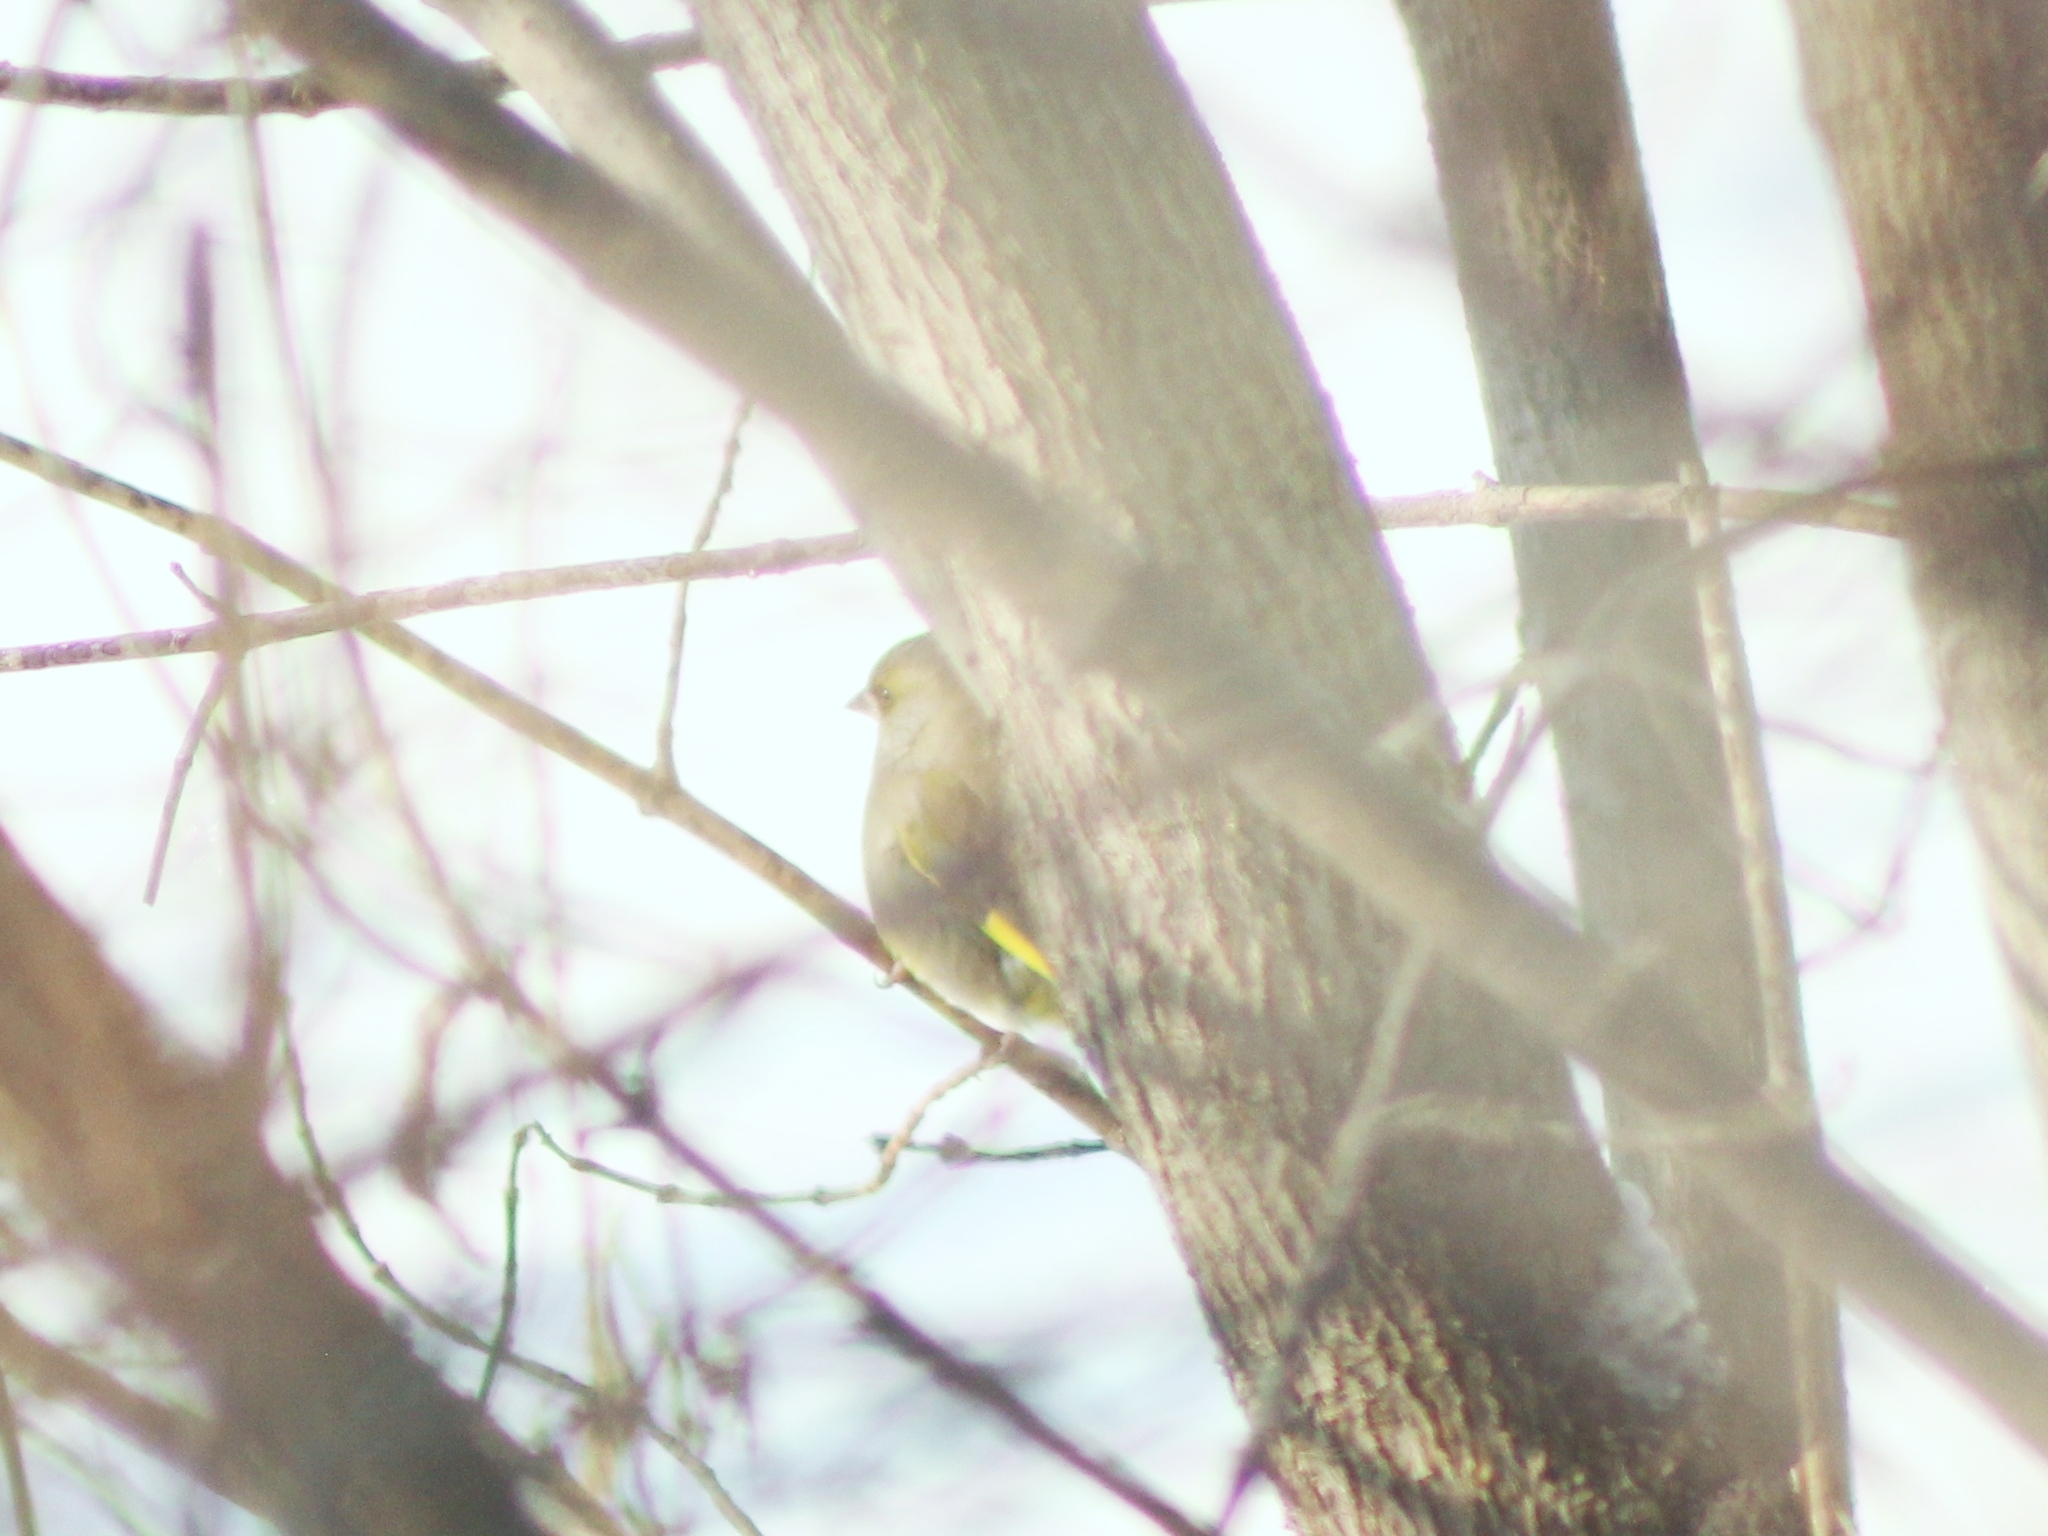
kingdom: Plantae
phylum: Tracheophyta
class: Liliopsida
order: Poales
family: Poaceae
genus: Chloris
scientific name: Chloris chloris
